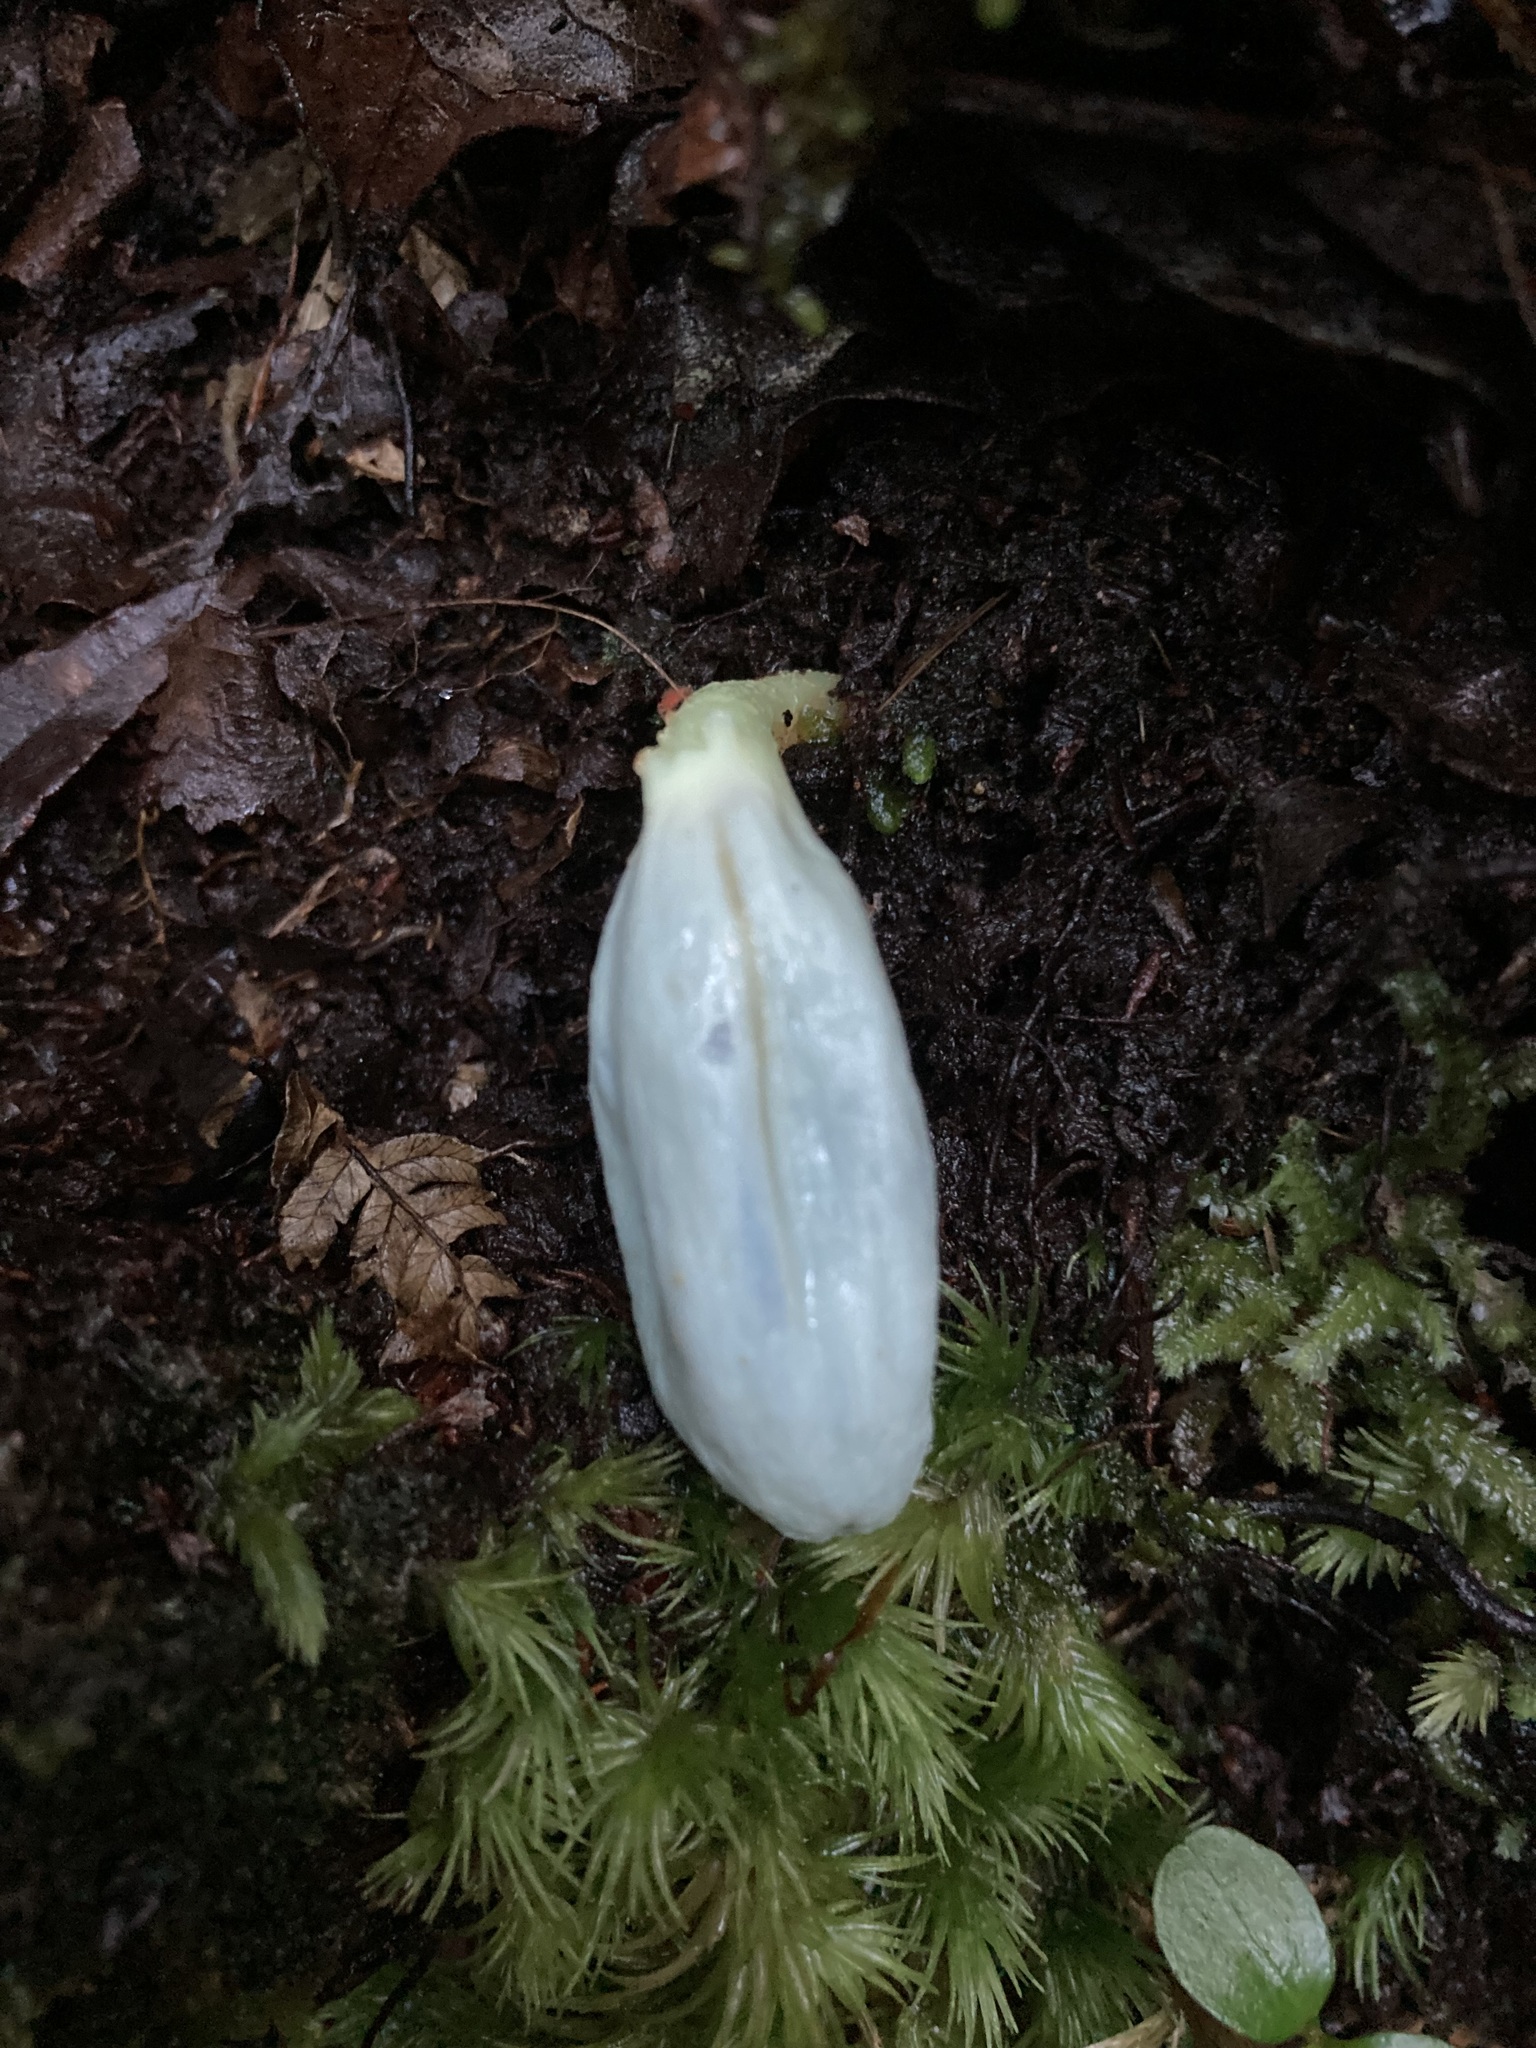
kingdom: Fungi
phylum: Basidiomycota
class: Agaricomycetes
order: Agaricales
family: Agaricaceae
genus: Clavogaster
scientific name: Clavogaster virescens
